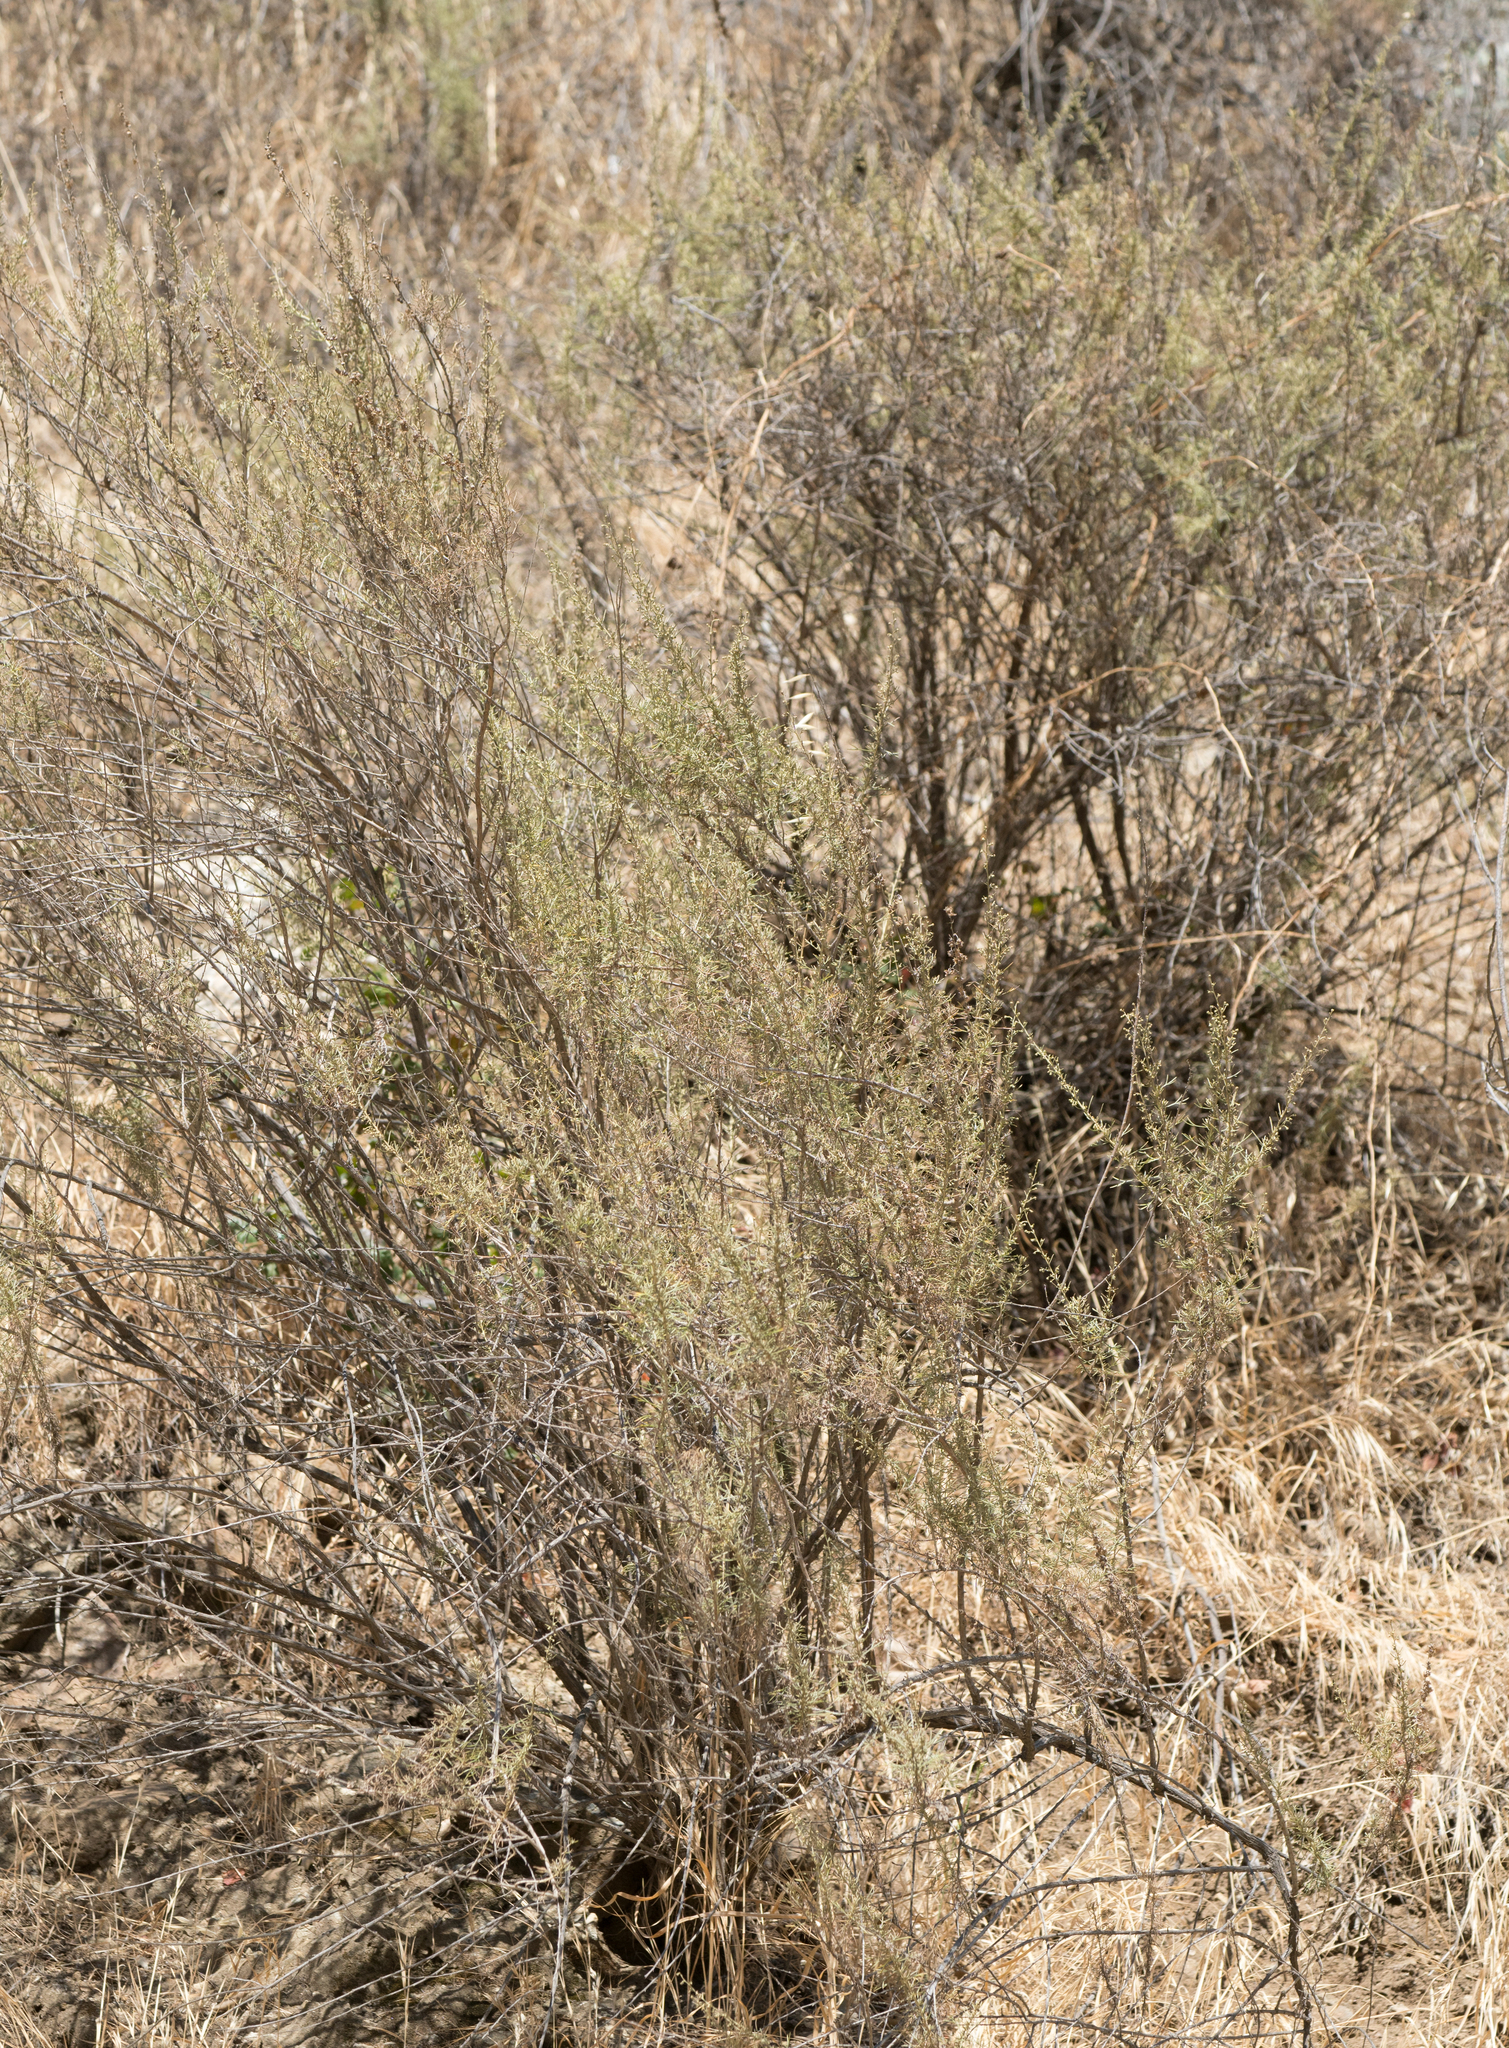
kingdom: Plantae
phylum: Tracheophyta
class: Magnoliopsida
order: Asterales
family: Asteraceae
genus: Artemisia
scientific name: Artemisia californica
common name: California sagebrush
